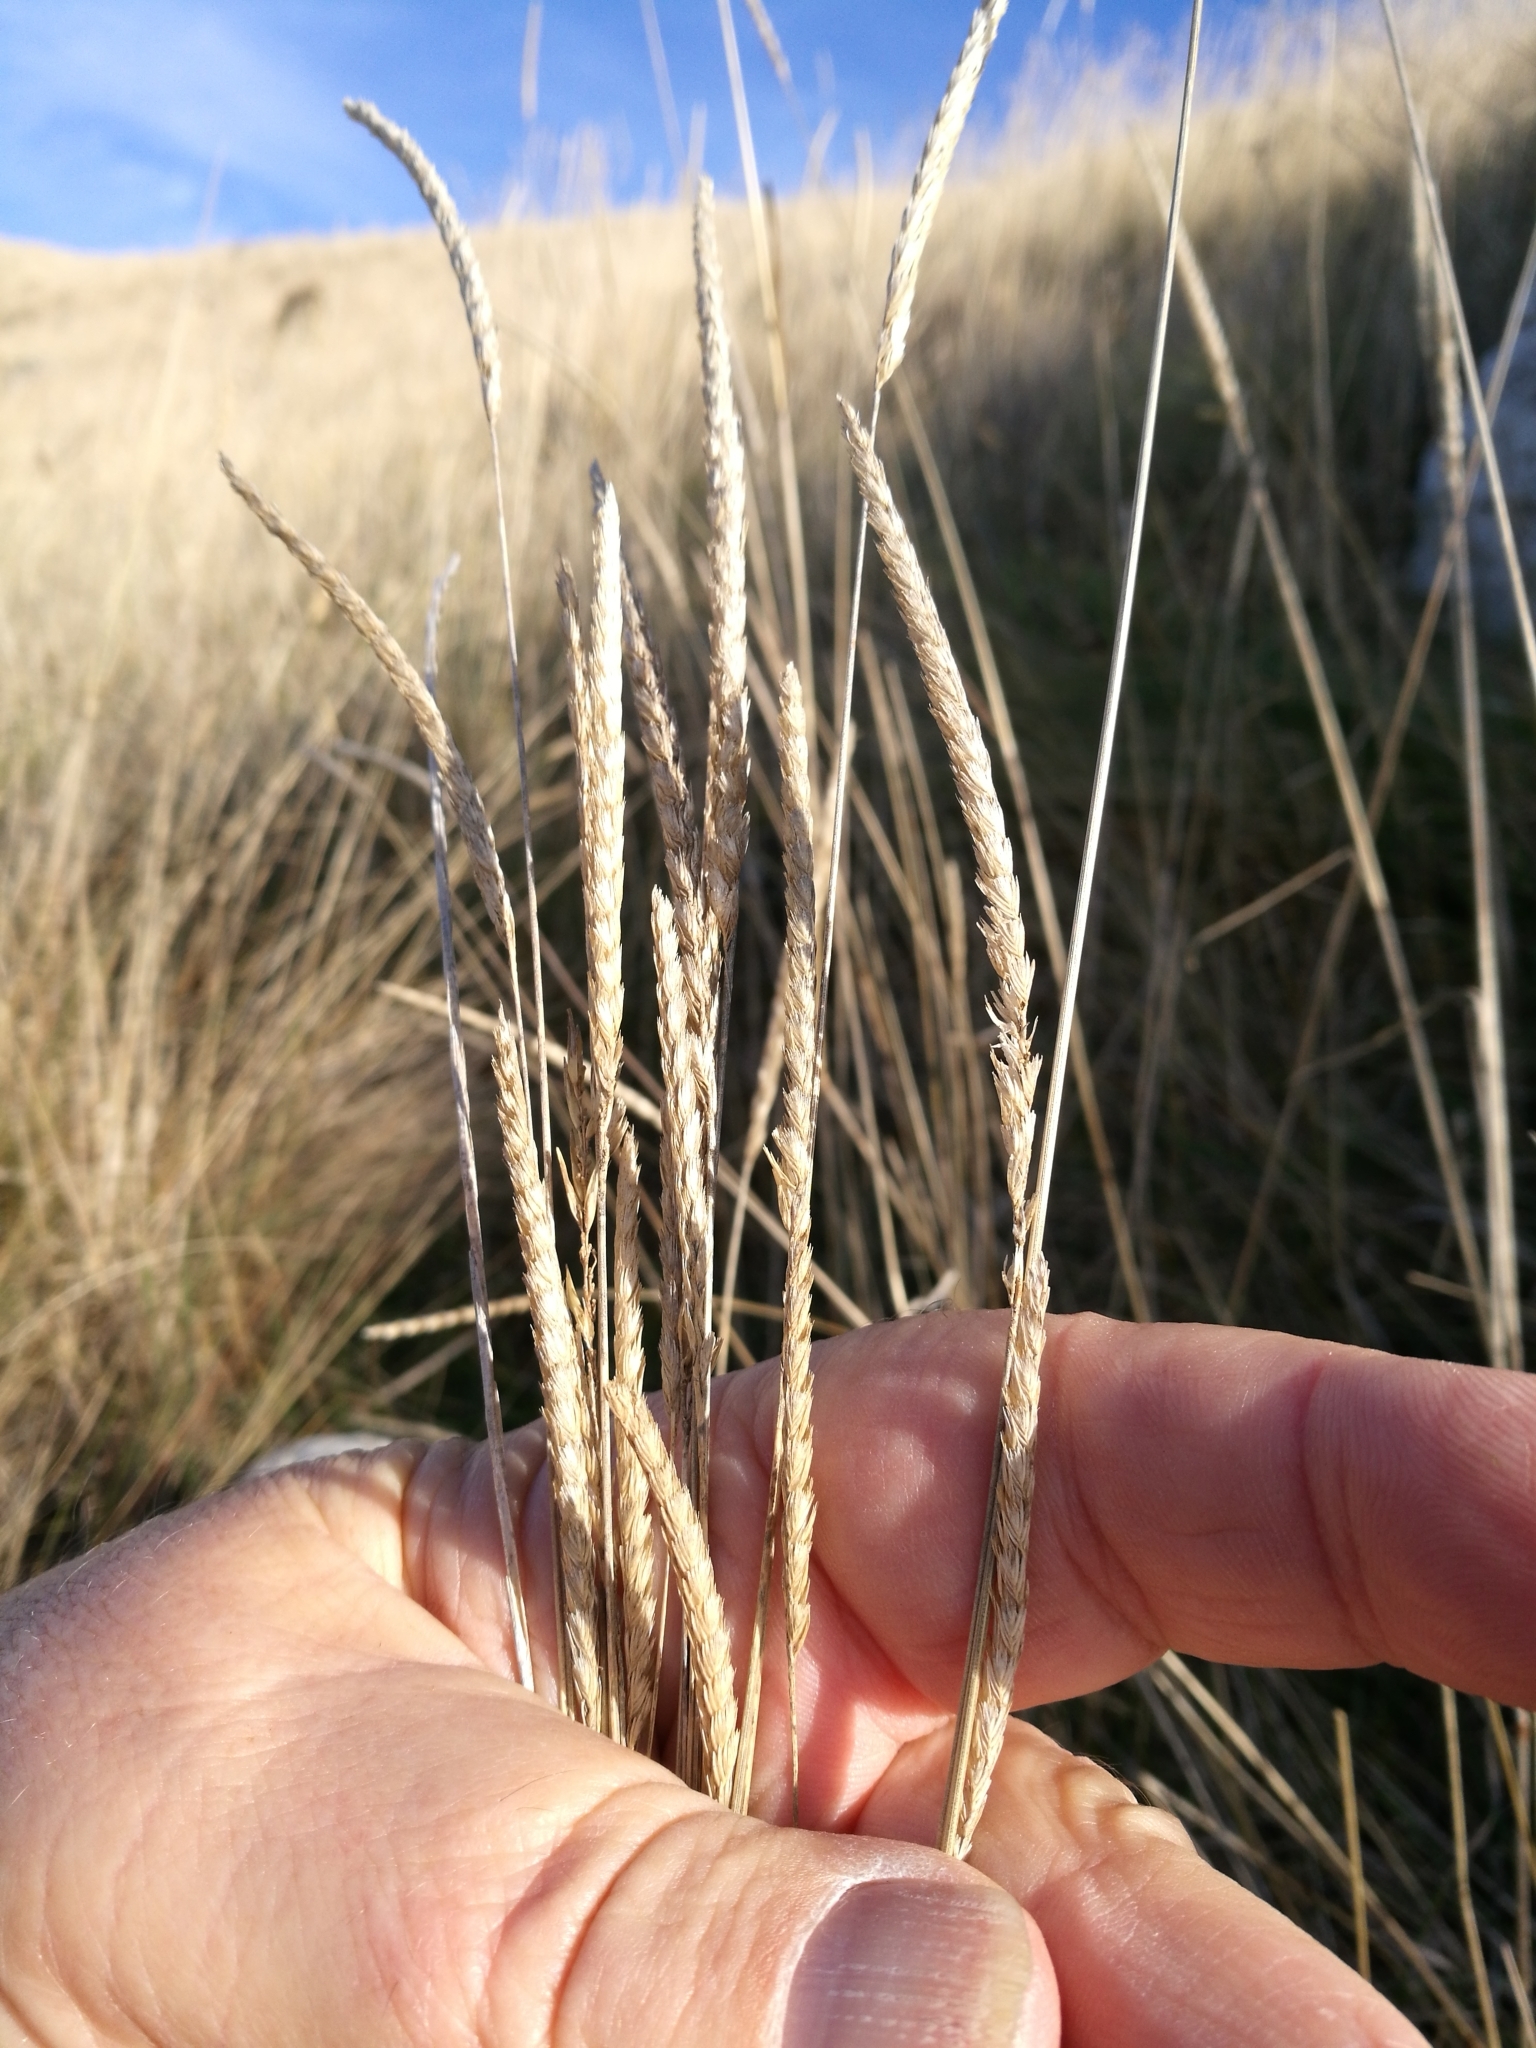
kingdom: Plantae
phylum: Tracheophyta
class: Liliopsida
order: Poales
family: Poaceae
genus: Cynosurus
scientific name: Cynosurus cristatus
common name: Crested dog's-tail
